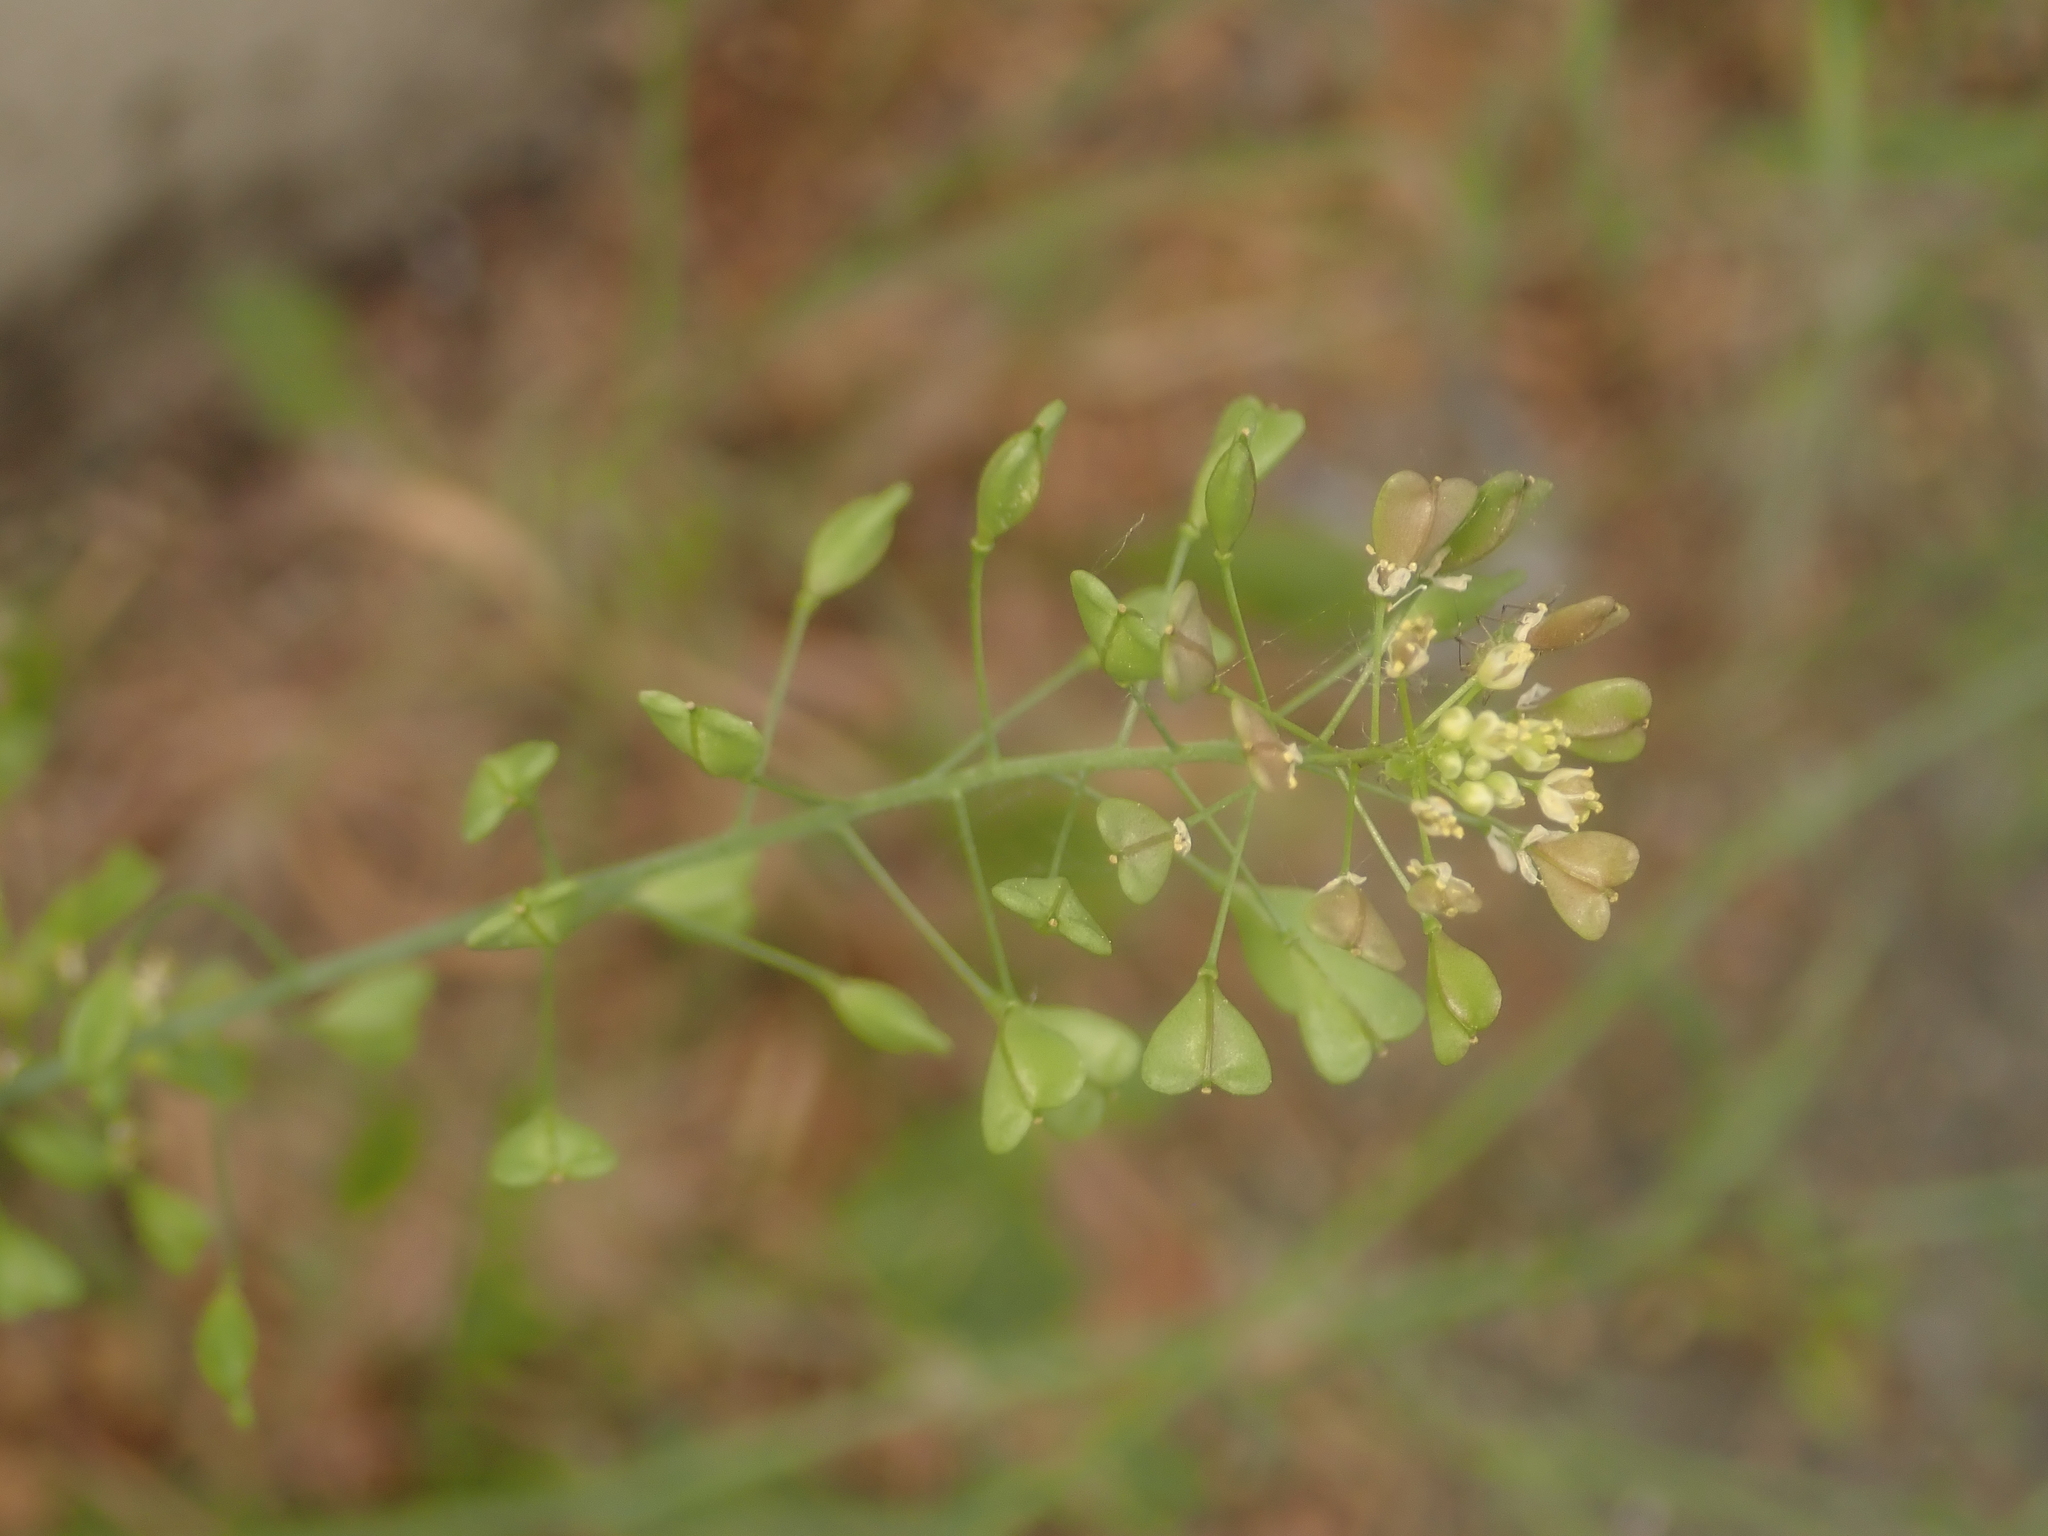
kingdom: Plantae
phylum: Tracheophyta
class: Magnoliopsida
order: Brassicales
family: Brassicaceae
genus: Capsella
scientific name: Capsella bursa-pastoris
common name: Shepherd's purse
